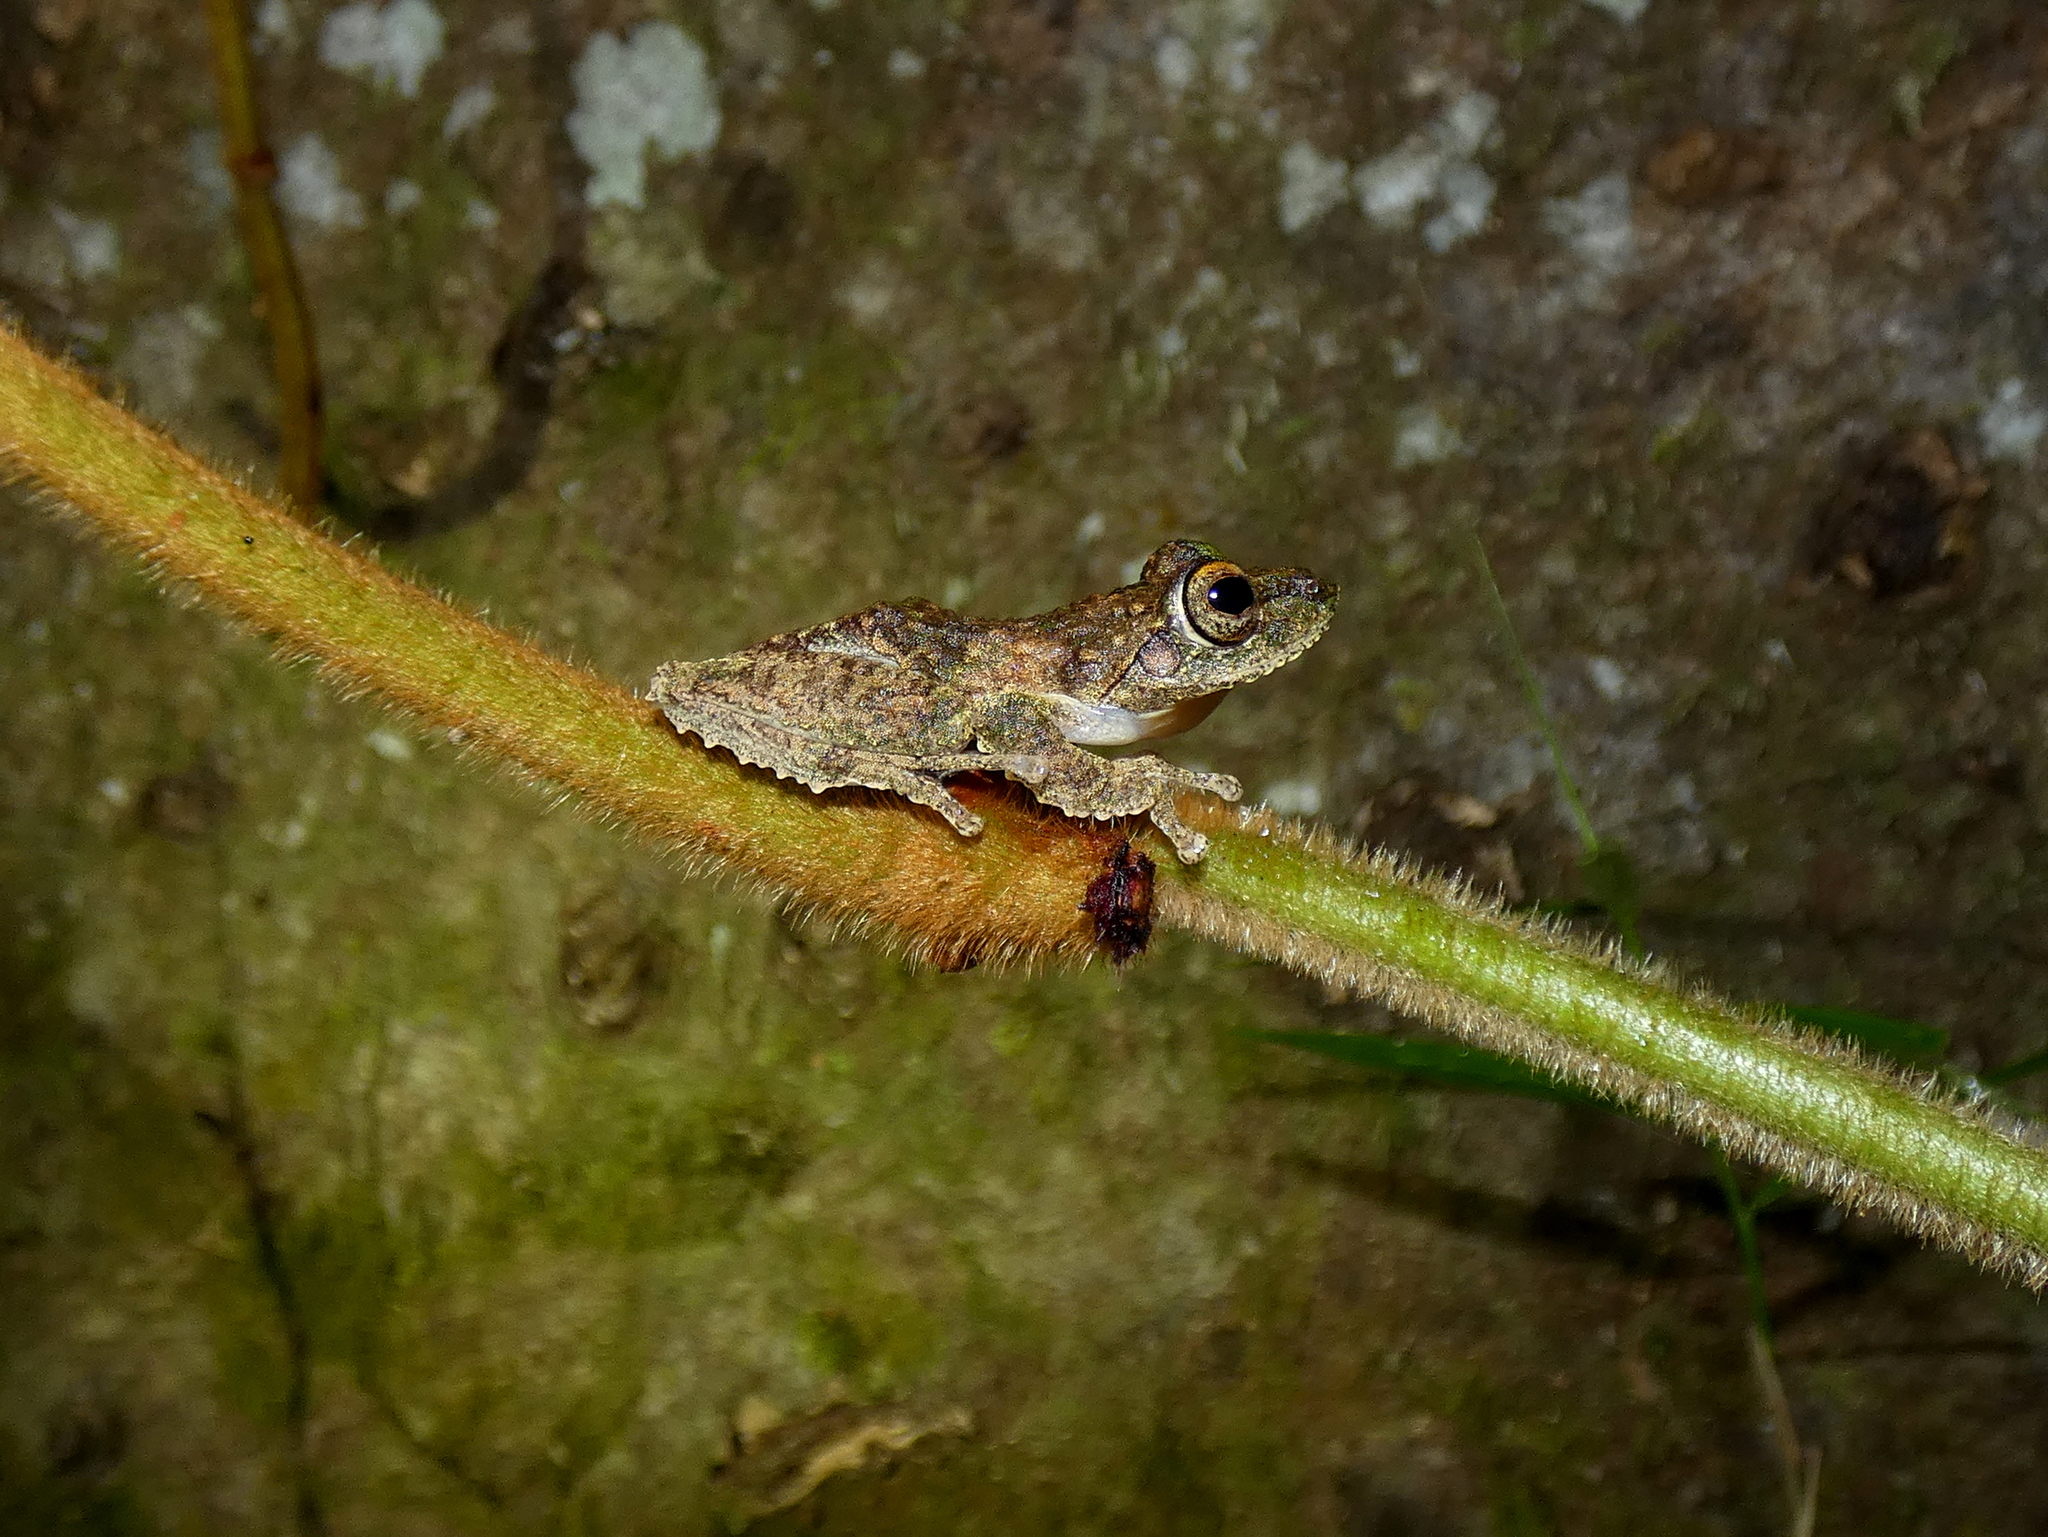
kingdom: Animalia
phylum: Chordata
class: Amphibia
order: Anura
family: Rhacophoridae
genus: Kurixalus
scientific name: Kurixalus chaseni
